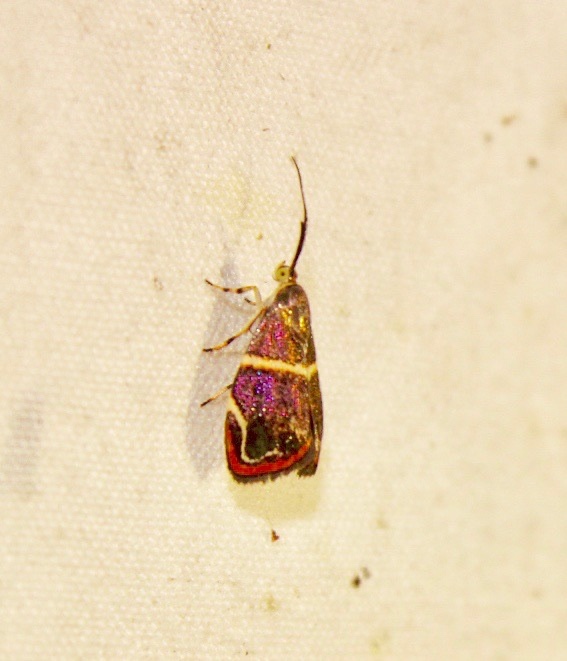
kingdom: Animalia
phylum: Arthropoda
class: Insecta
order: Lepidoptera
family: Choreutidae
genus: Hemerophila
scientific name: Hemerophila
